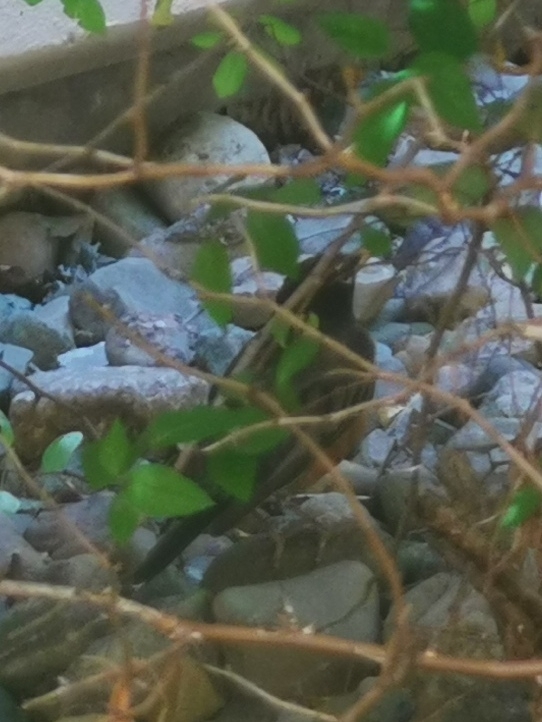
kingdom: Animalia
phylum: Chordata
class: Aves
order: Passeriformes
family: Turdidae
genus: Turdus
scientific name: Turdus migratorius
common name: American robin
